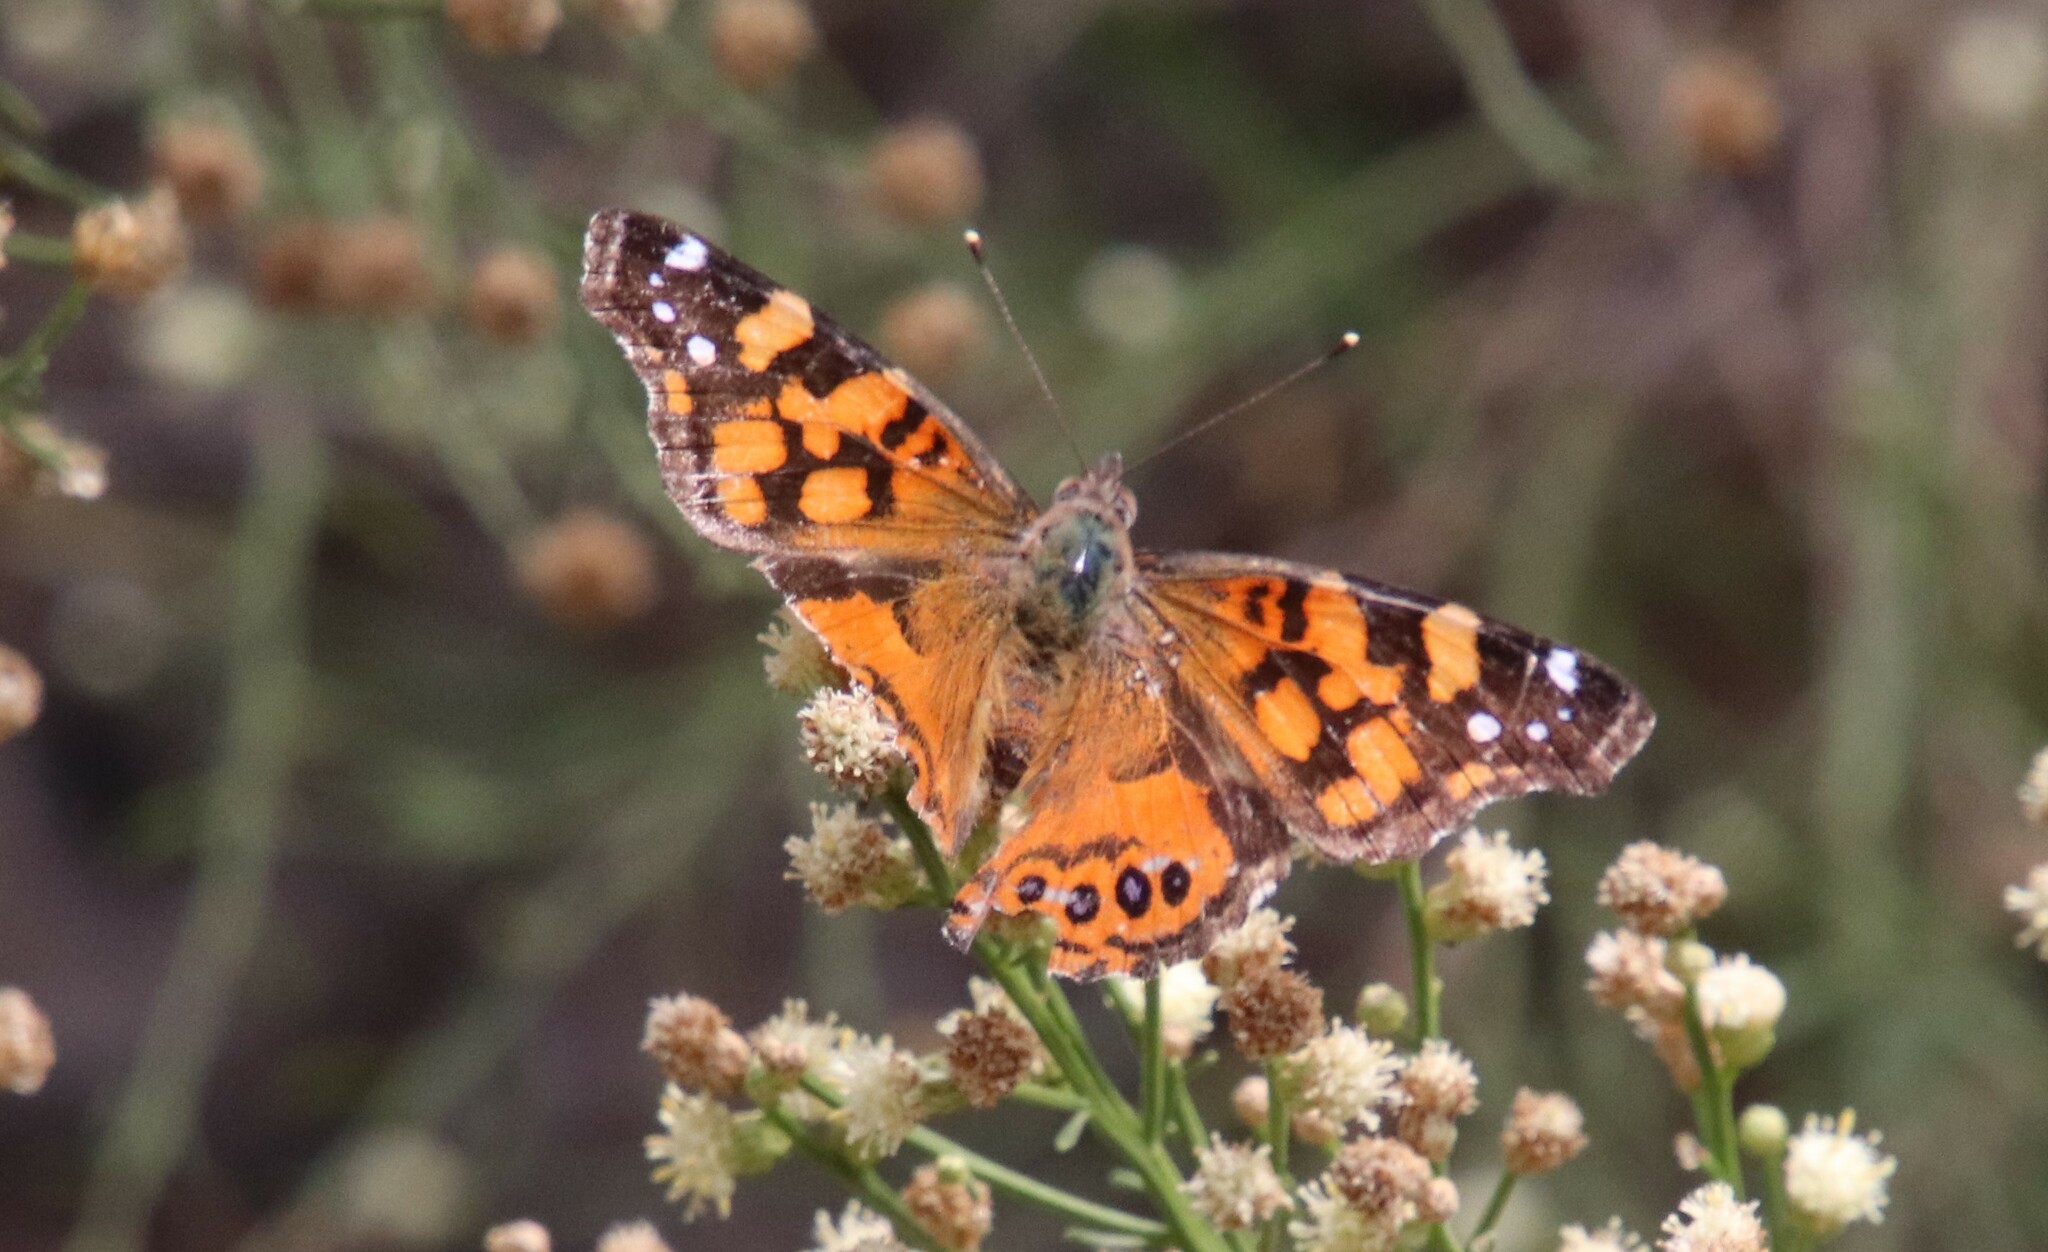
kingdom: Animalia
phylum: Arthropoda
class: Insecta
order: Lepidoptera
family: Nymphalidae
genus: Vanessa
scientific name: Vanessa annabella
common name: West coast lady
